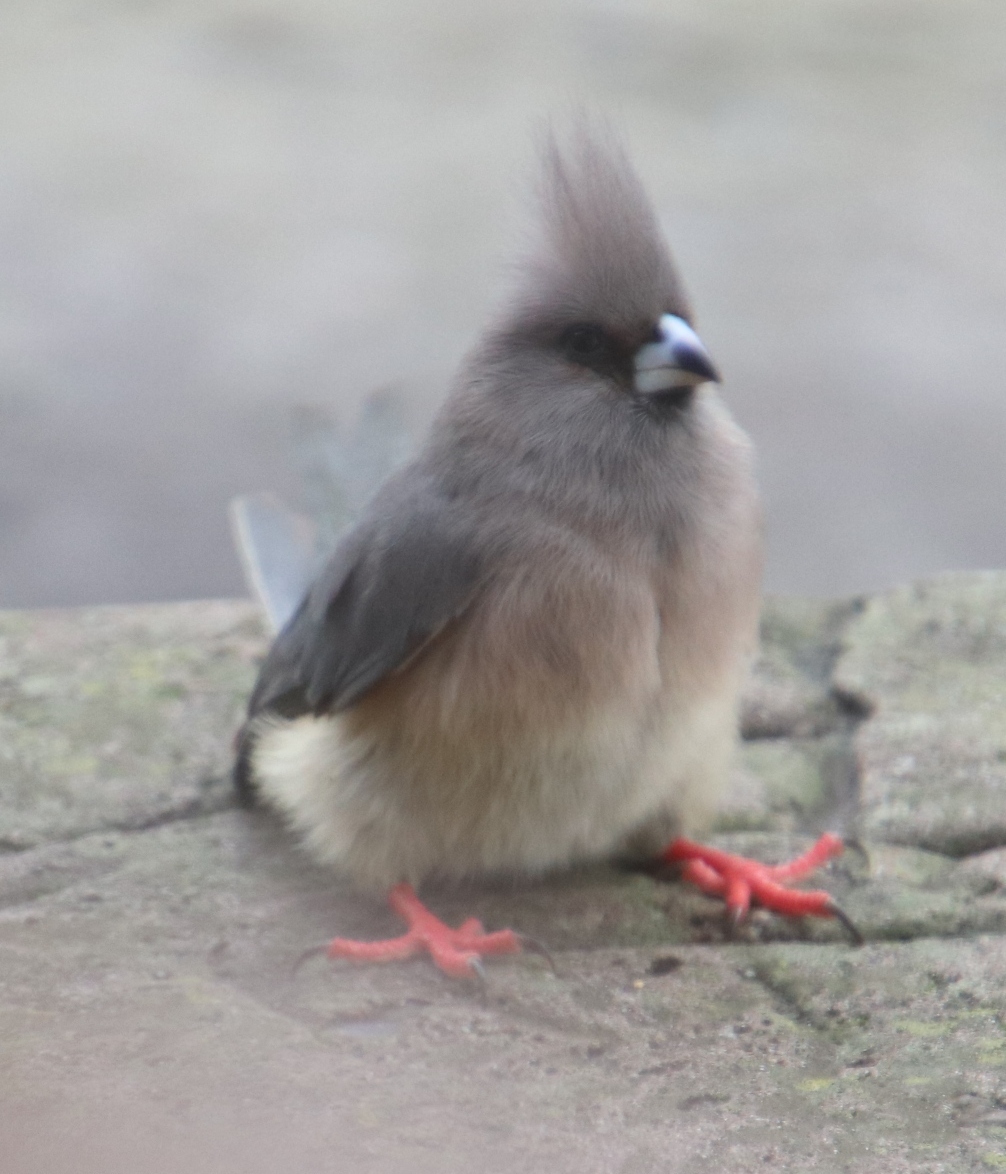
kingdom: Animalia
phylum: Chordata
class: Aves
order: Coliiformes
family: Coliidae
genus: Colius
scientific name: Colius colius
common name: White-backed mousebird
